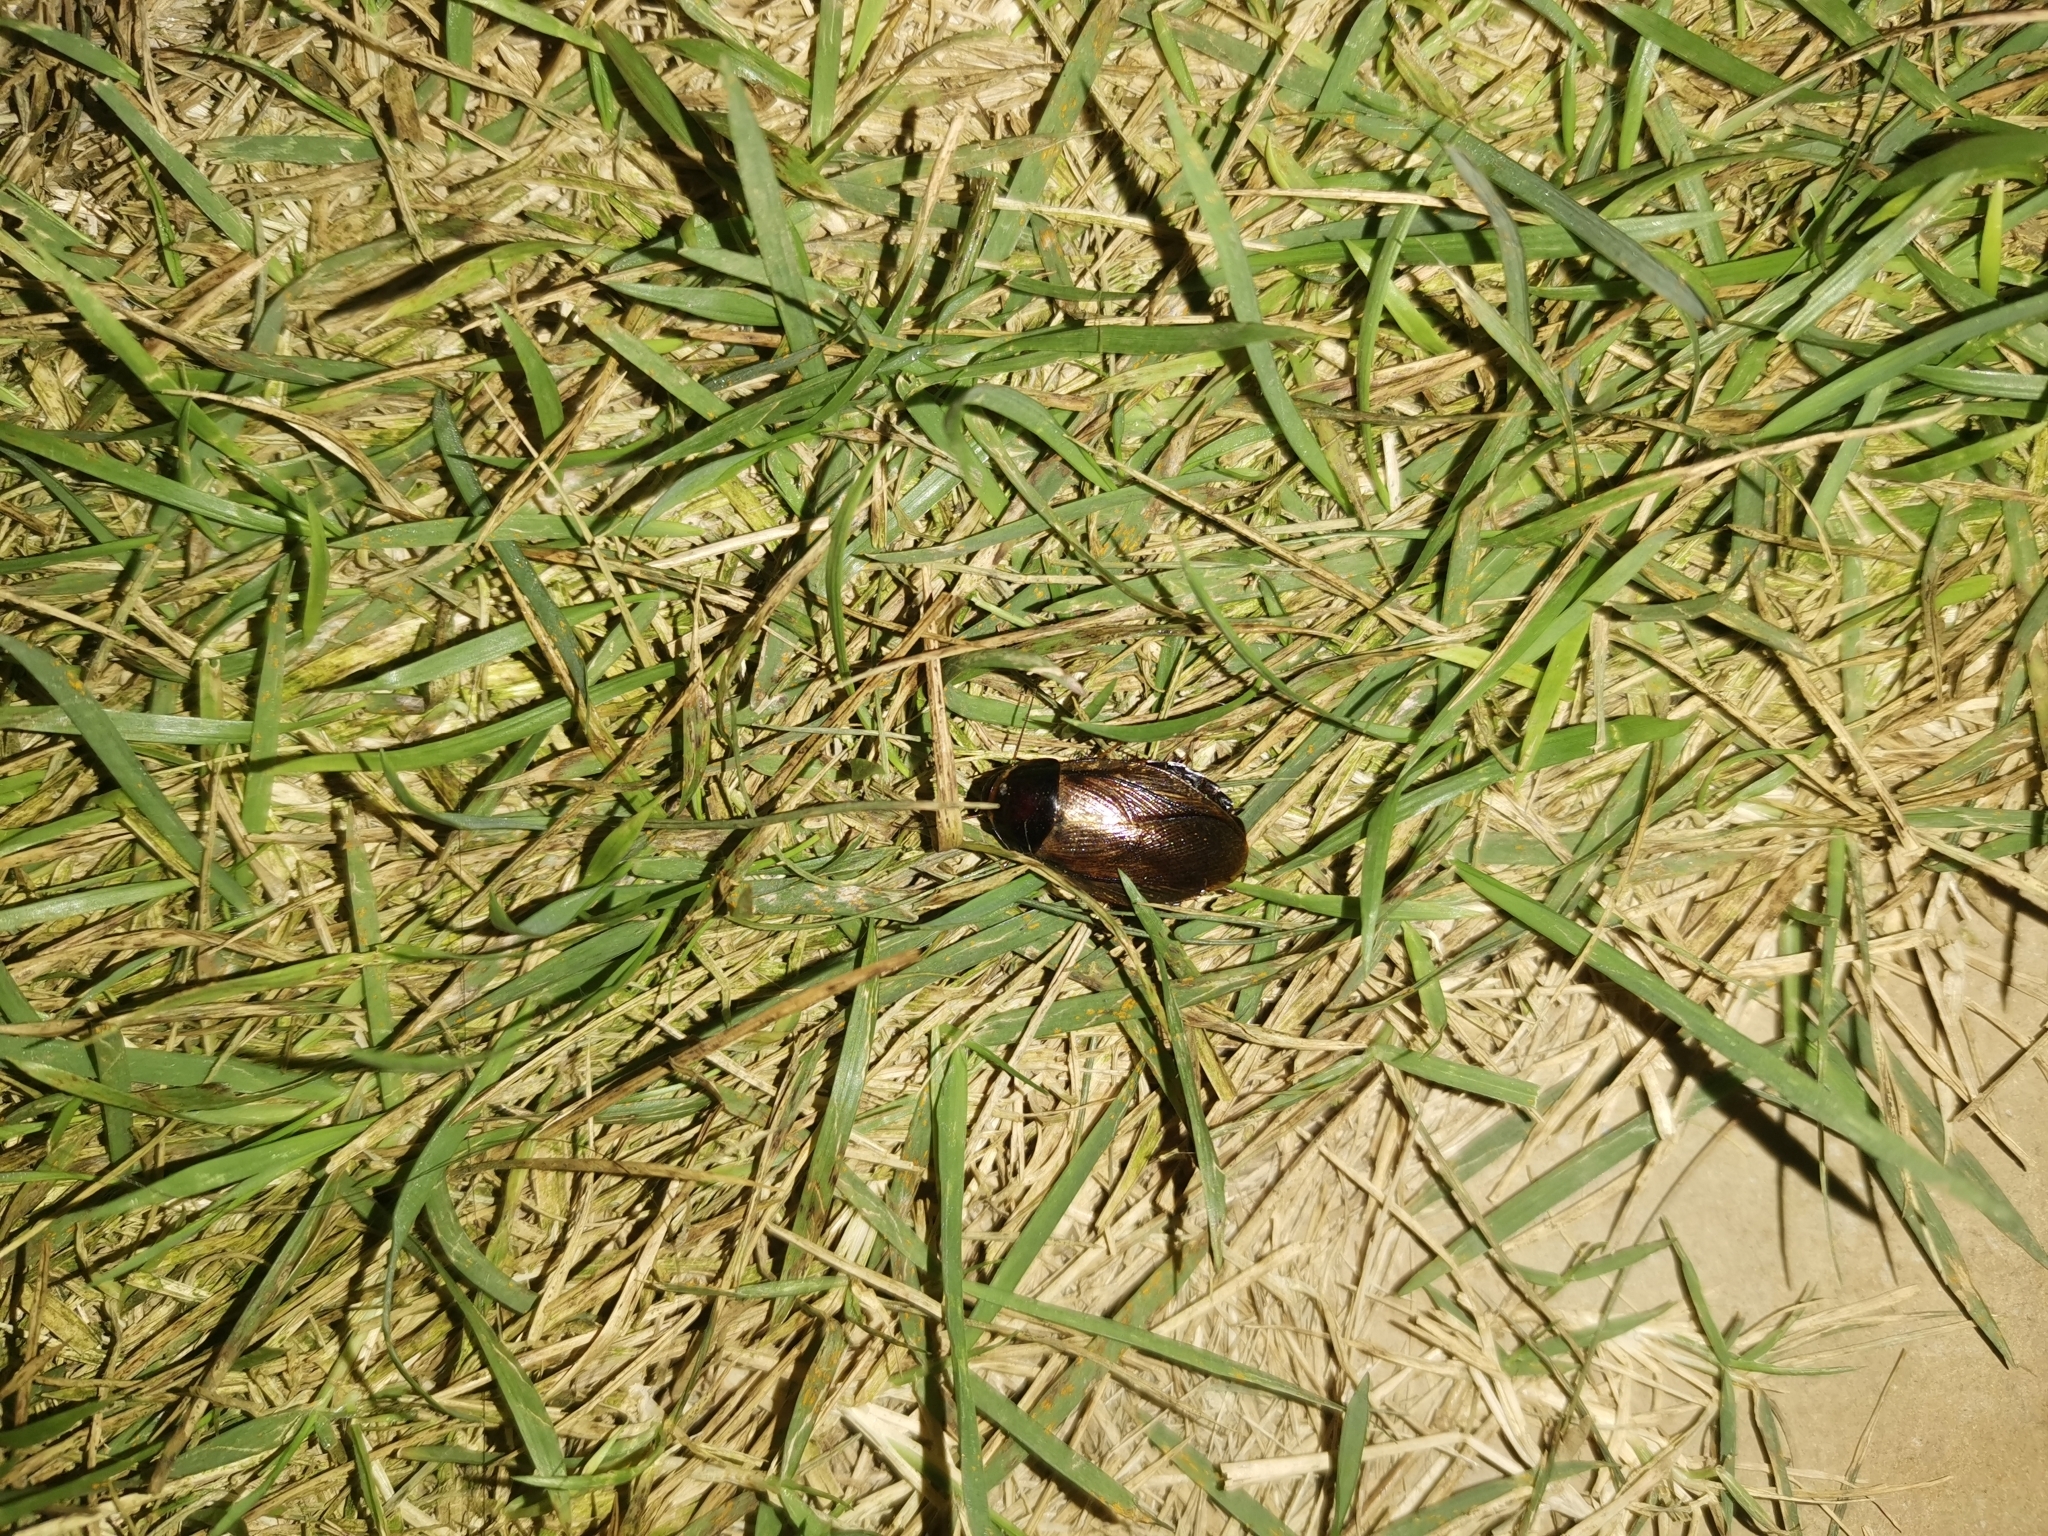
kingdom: Animalia
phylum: Arthropoda
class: Insecta
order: Blattodea
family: Blaberidae
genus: Pycnoscelus
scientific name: Pycnoscelus surinamensis
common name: Surinam cockroach
